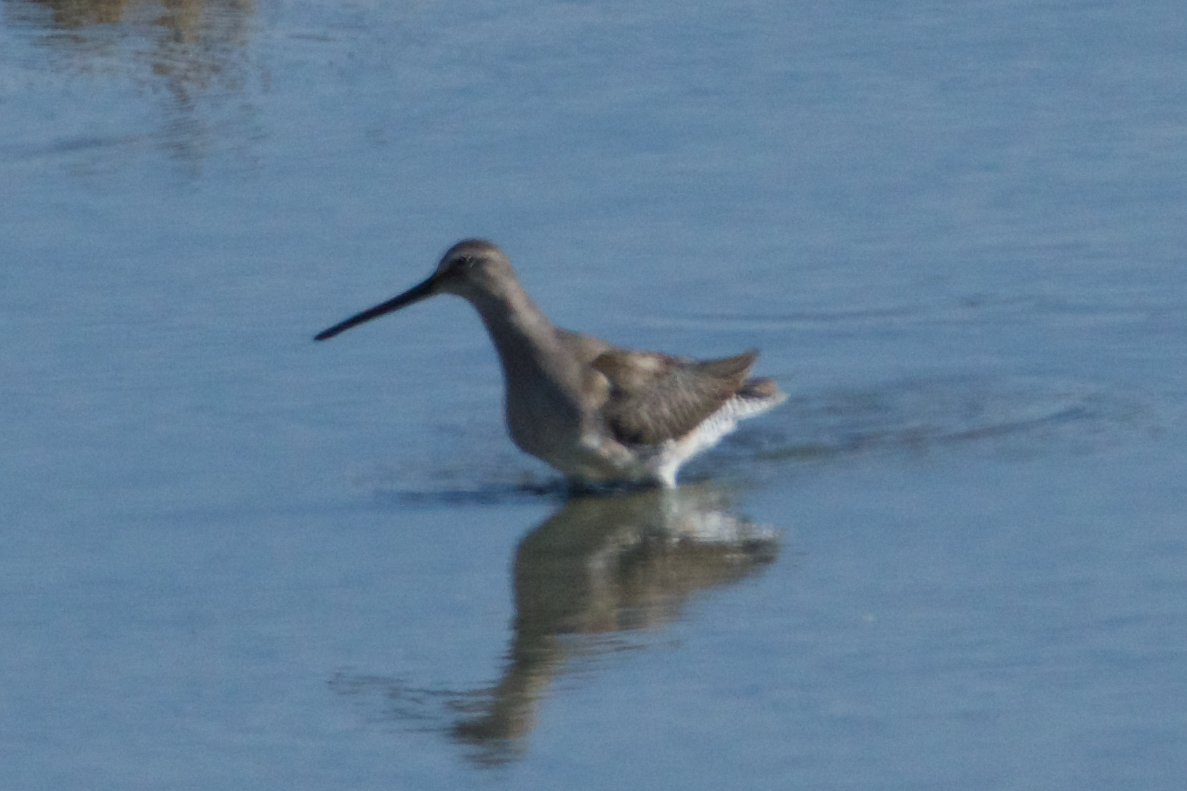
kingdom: Animalia
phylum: Chordata
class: Aves
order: Charadriiformes
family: Scolopacidae
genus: Limnodromus
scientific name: Limnodromus scolopaceus
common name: Long-billed dowitcher
